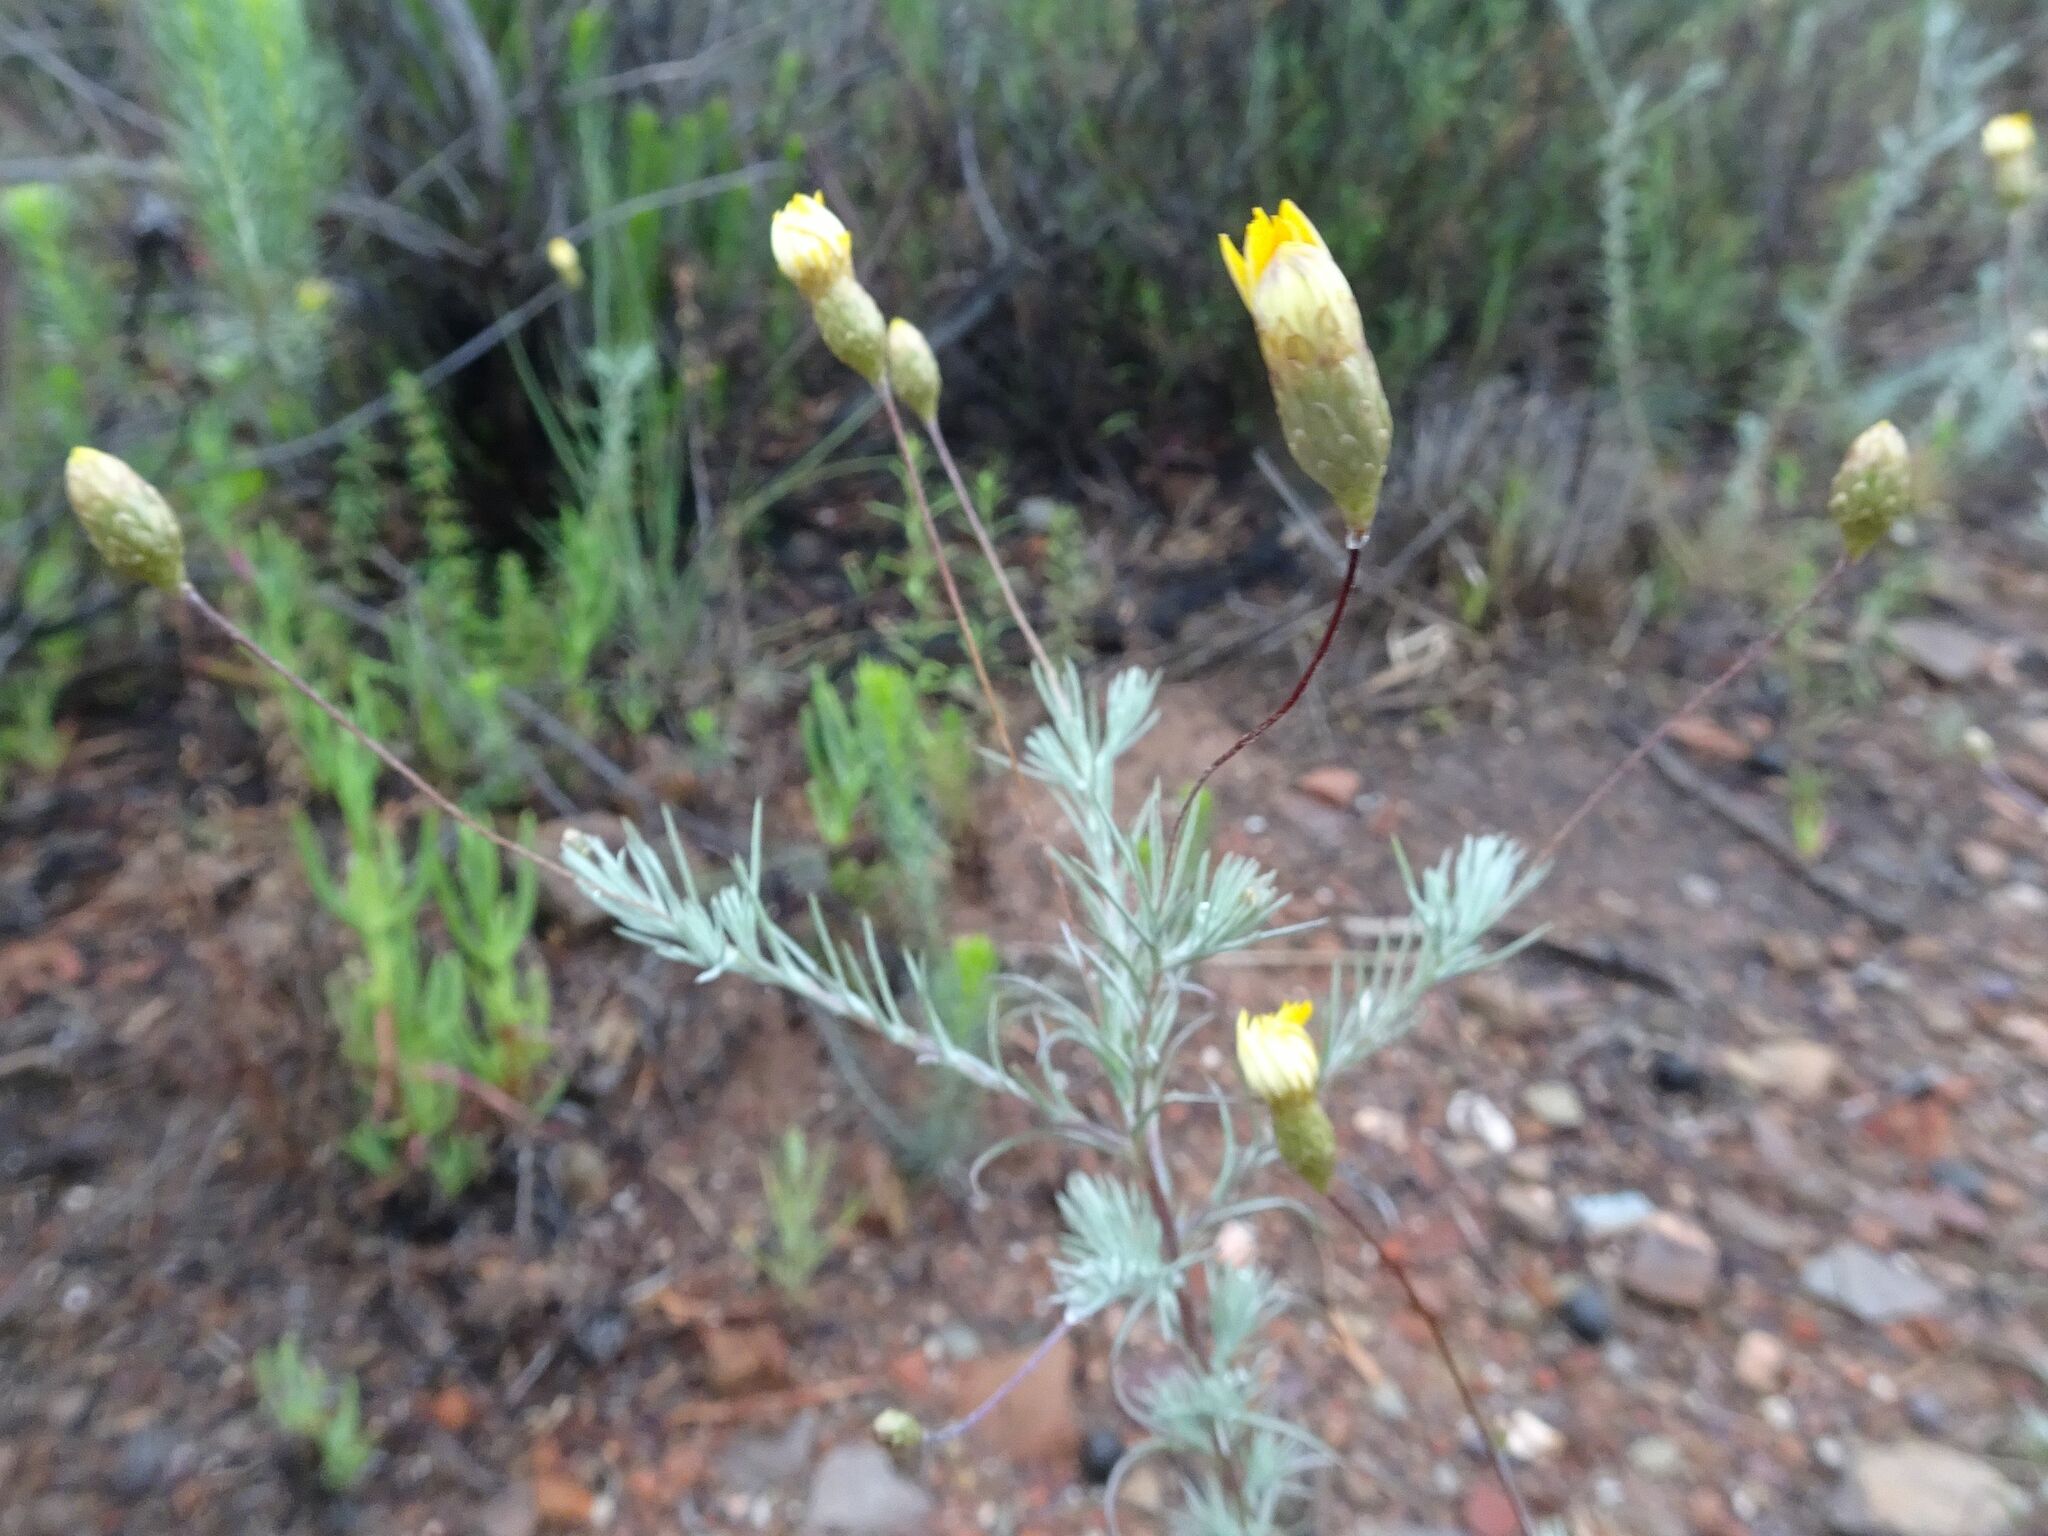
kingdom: Plantae
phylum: Tracheophyta
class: Magnoliopsida
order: Asterales
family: Asteraceae
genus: Leysera
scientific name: Leysera gnaphalodes
